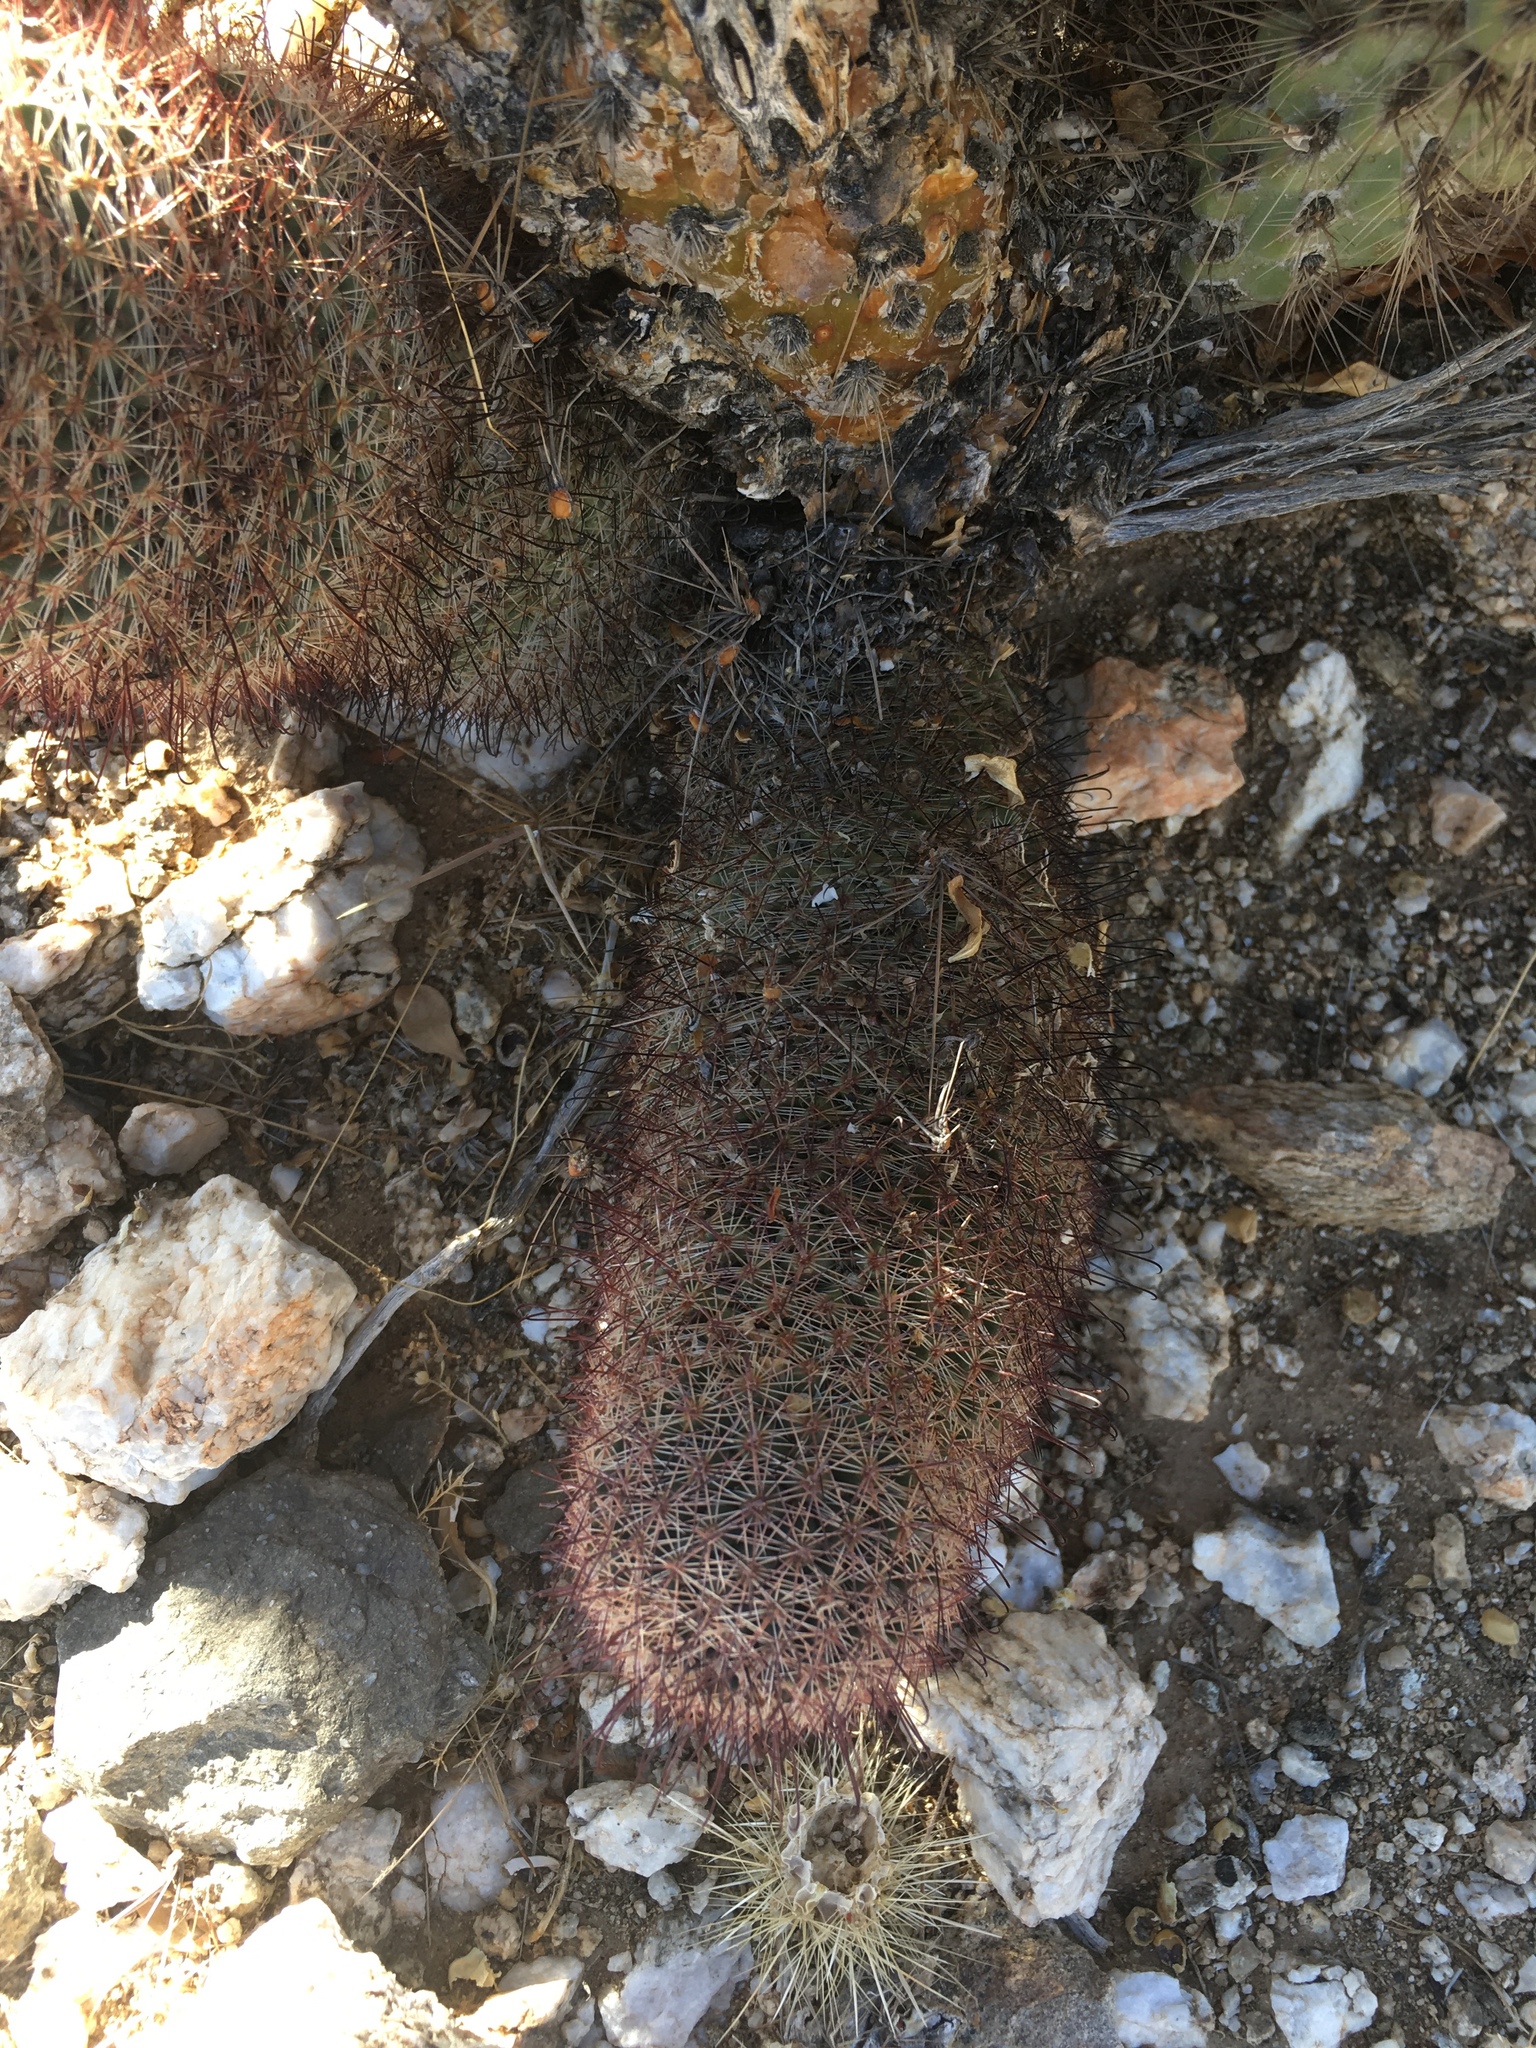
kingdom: Plantae
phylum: Tracheophyta
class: Magnoliopsida
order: Caryophyllales
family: Cactaceae
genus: Cochemiea
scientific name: Cochemiea dioica
